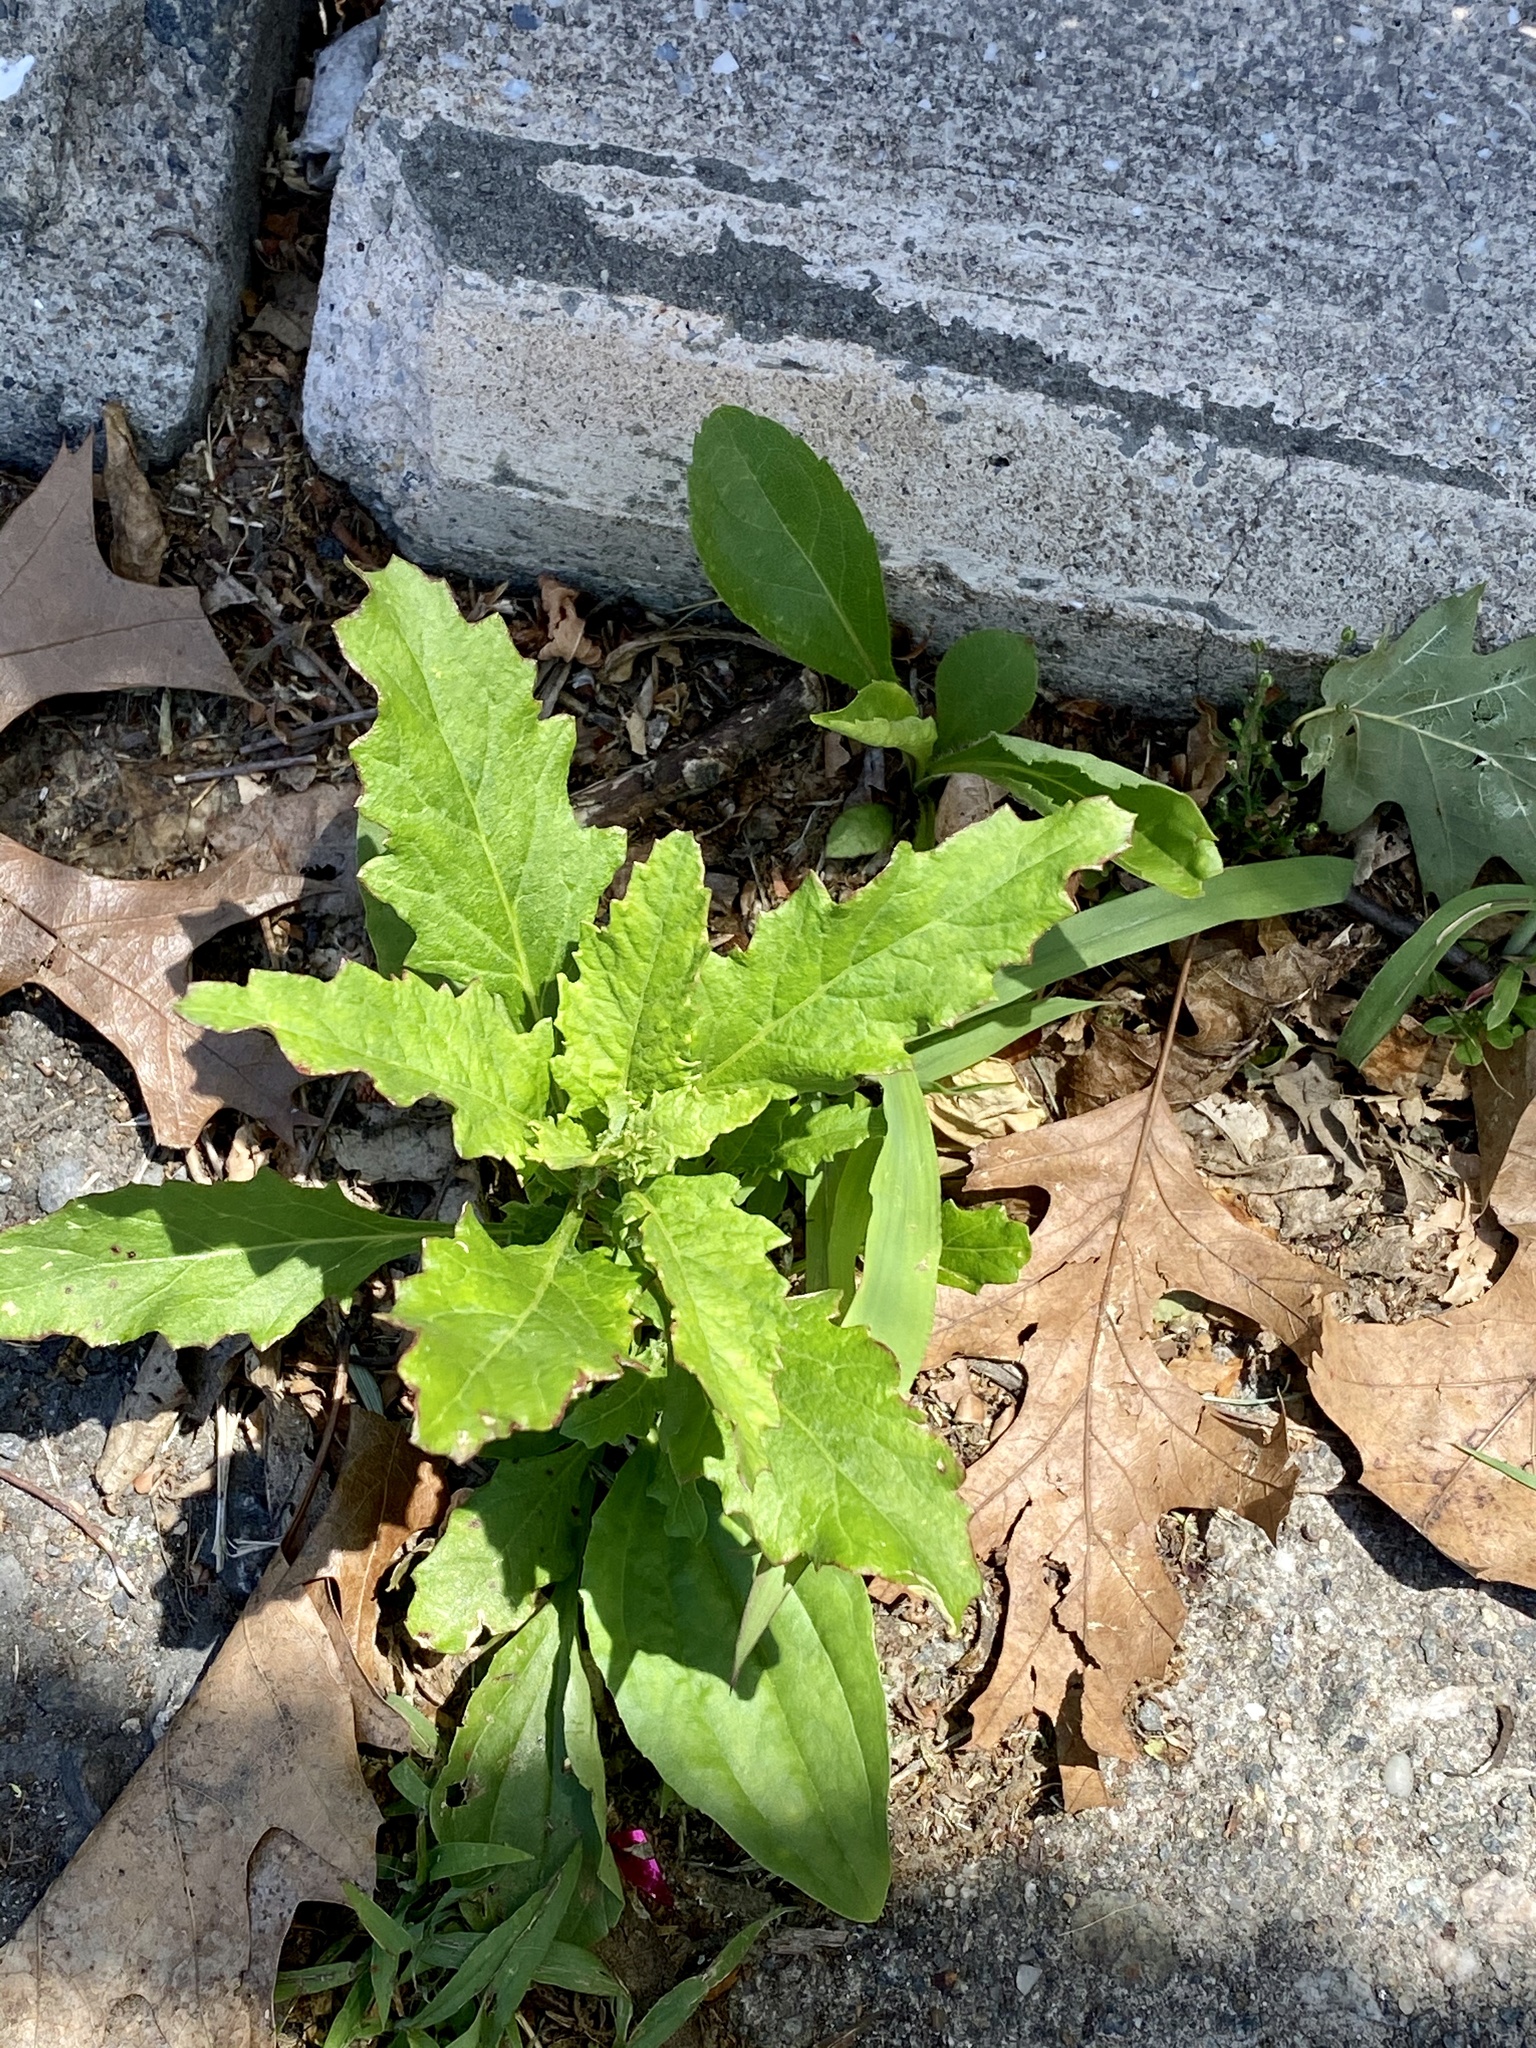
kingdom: Plantae
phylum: Tracheophyta
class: Magnoliopsida
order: Caryophyllales
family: Amaranthaceae
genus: Dysphania
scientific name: Dysphania ambrosioides
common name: Wormseed
